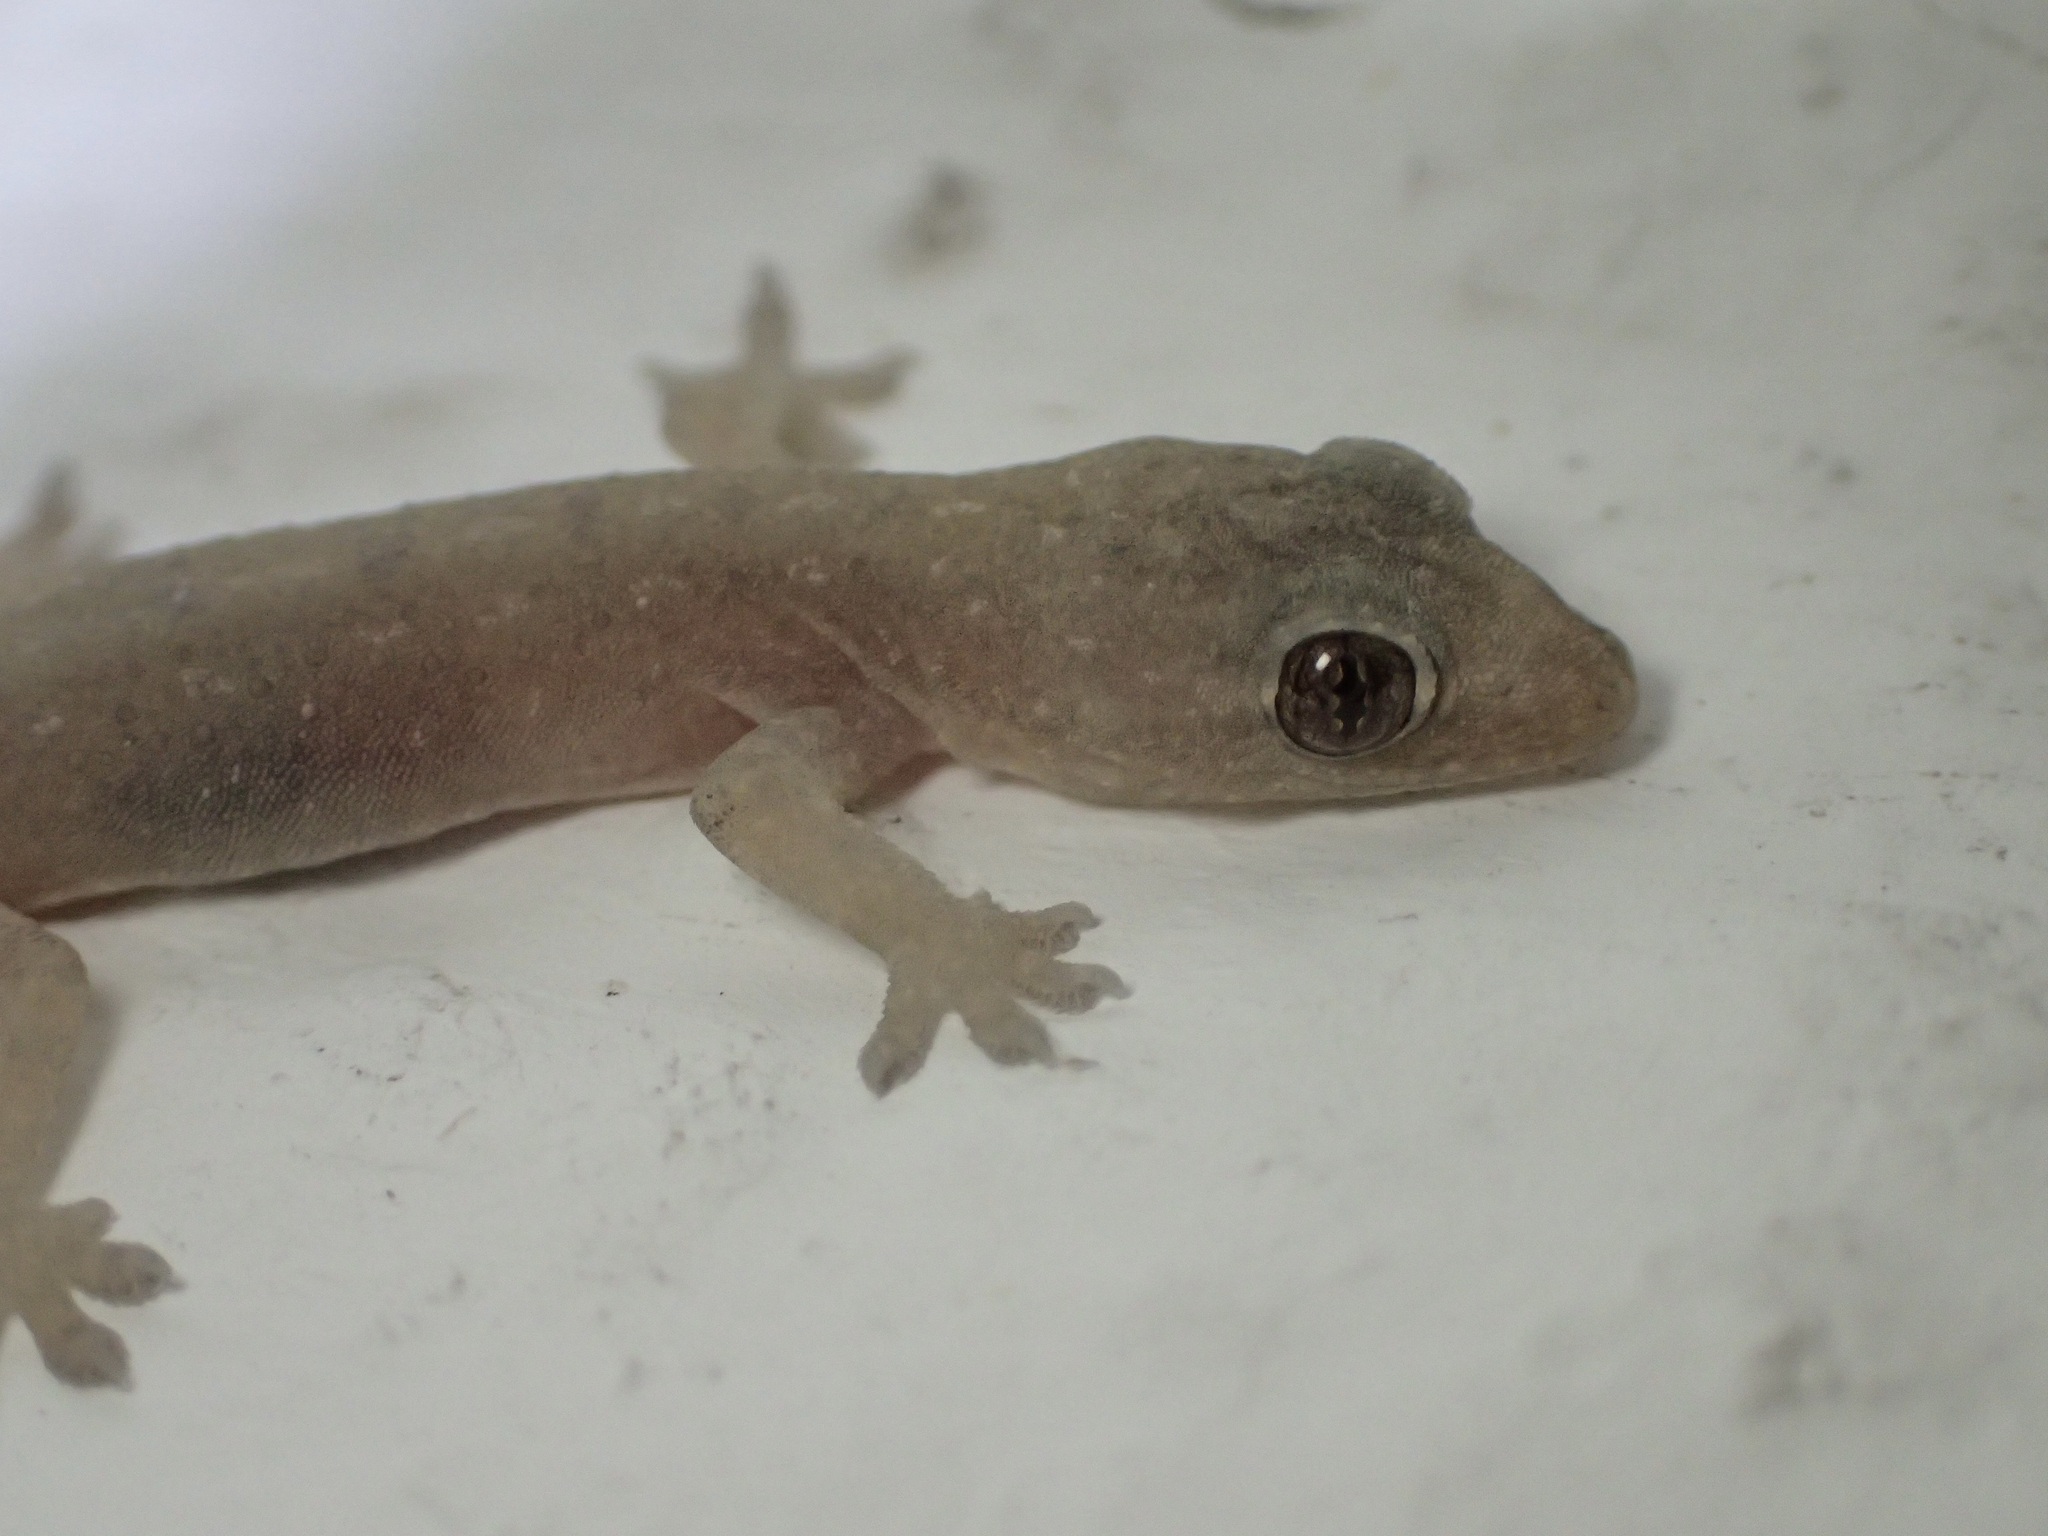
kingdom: Animalia
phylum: Chordata
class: Squamata
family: Gekkonidae
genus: Hemidactylus
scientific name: Hemidactylus frenatus
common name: Common house gecko
